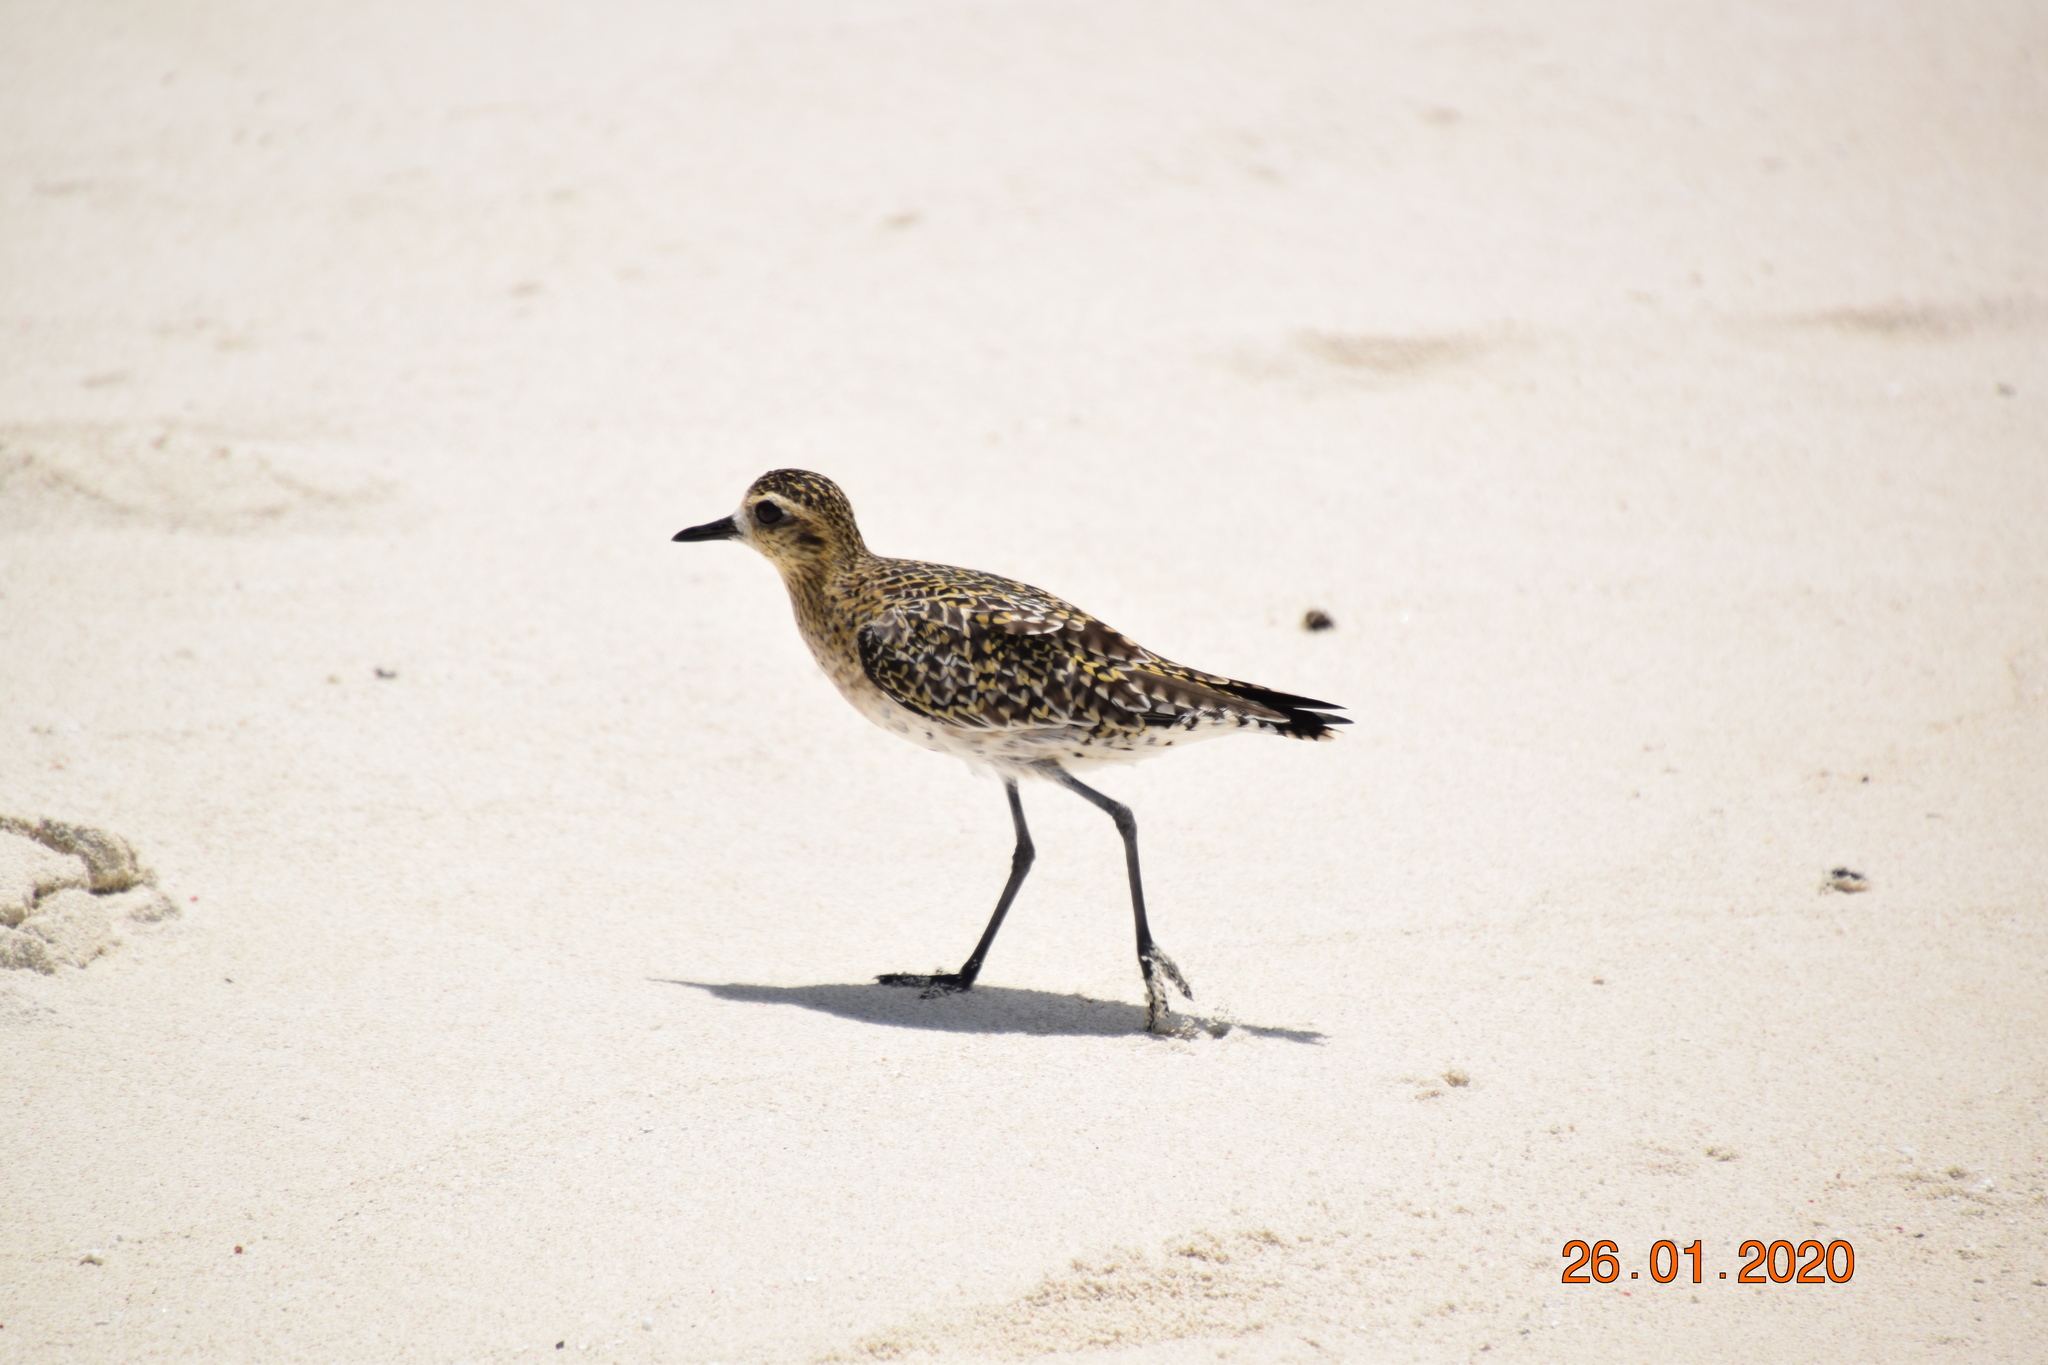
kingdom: Animalia
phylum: Chordata
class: Aves
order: Charadriiformes
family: Charadriidae
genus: Pluvialis
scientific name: Pluvialis fulva
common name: Pacific golden plover
